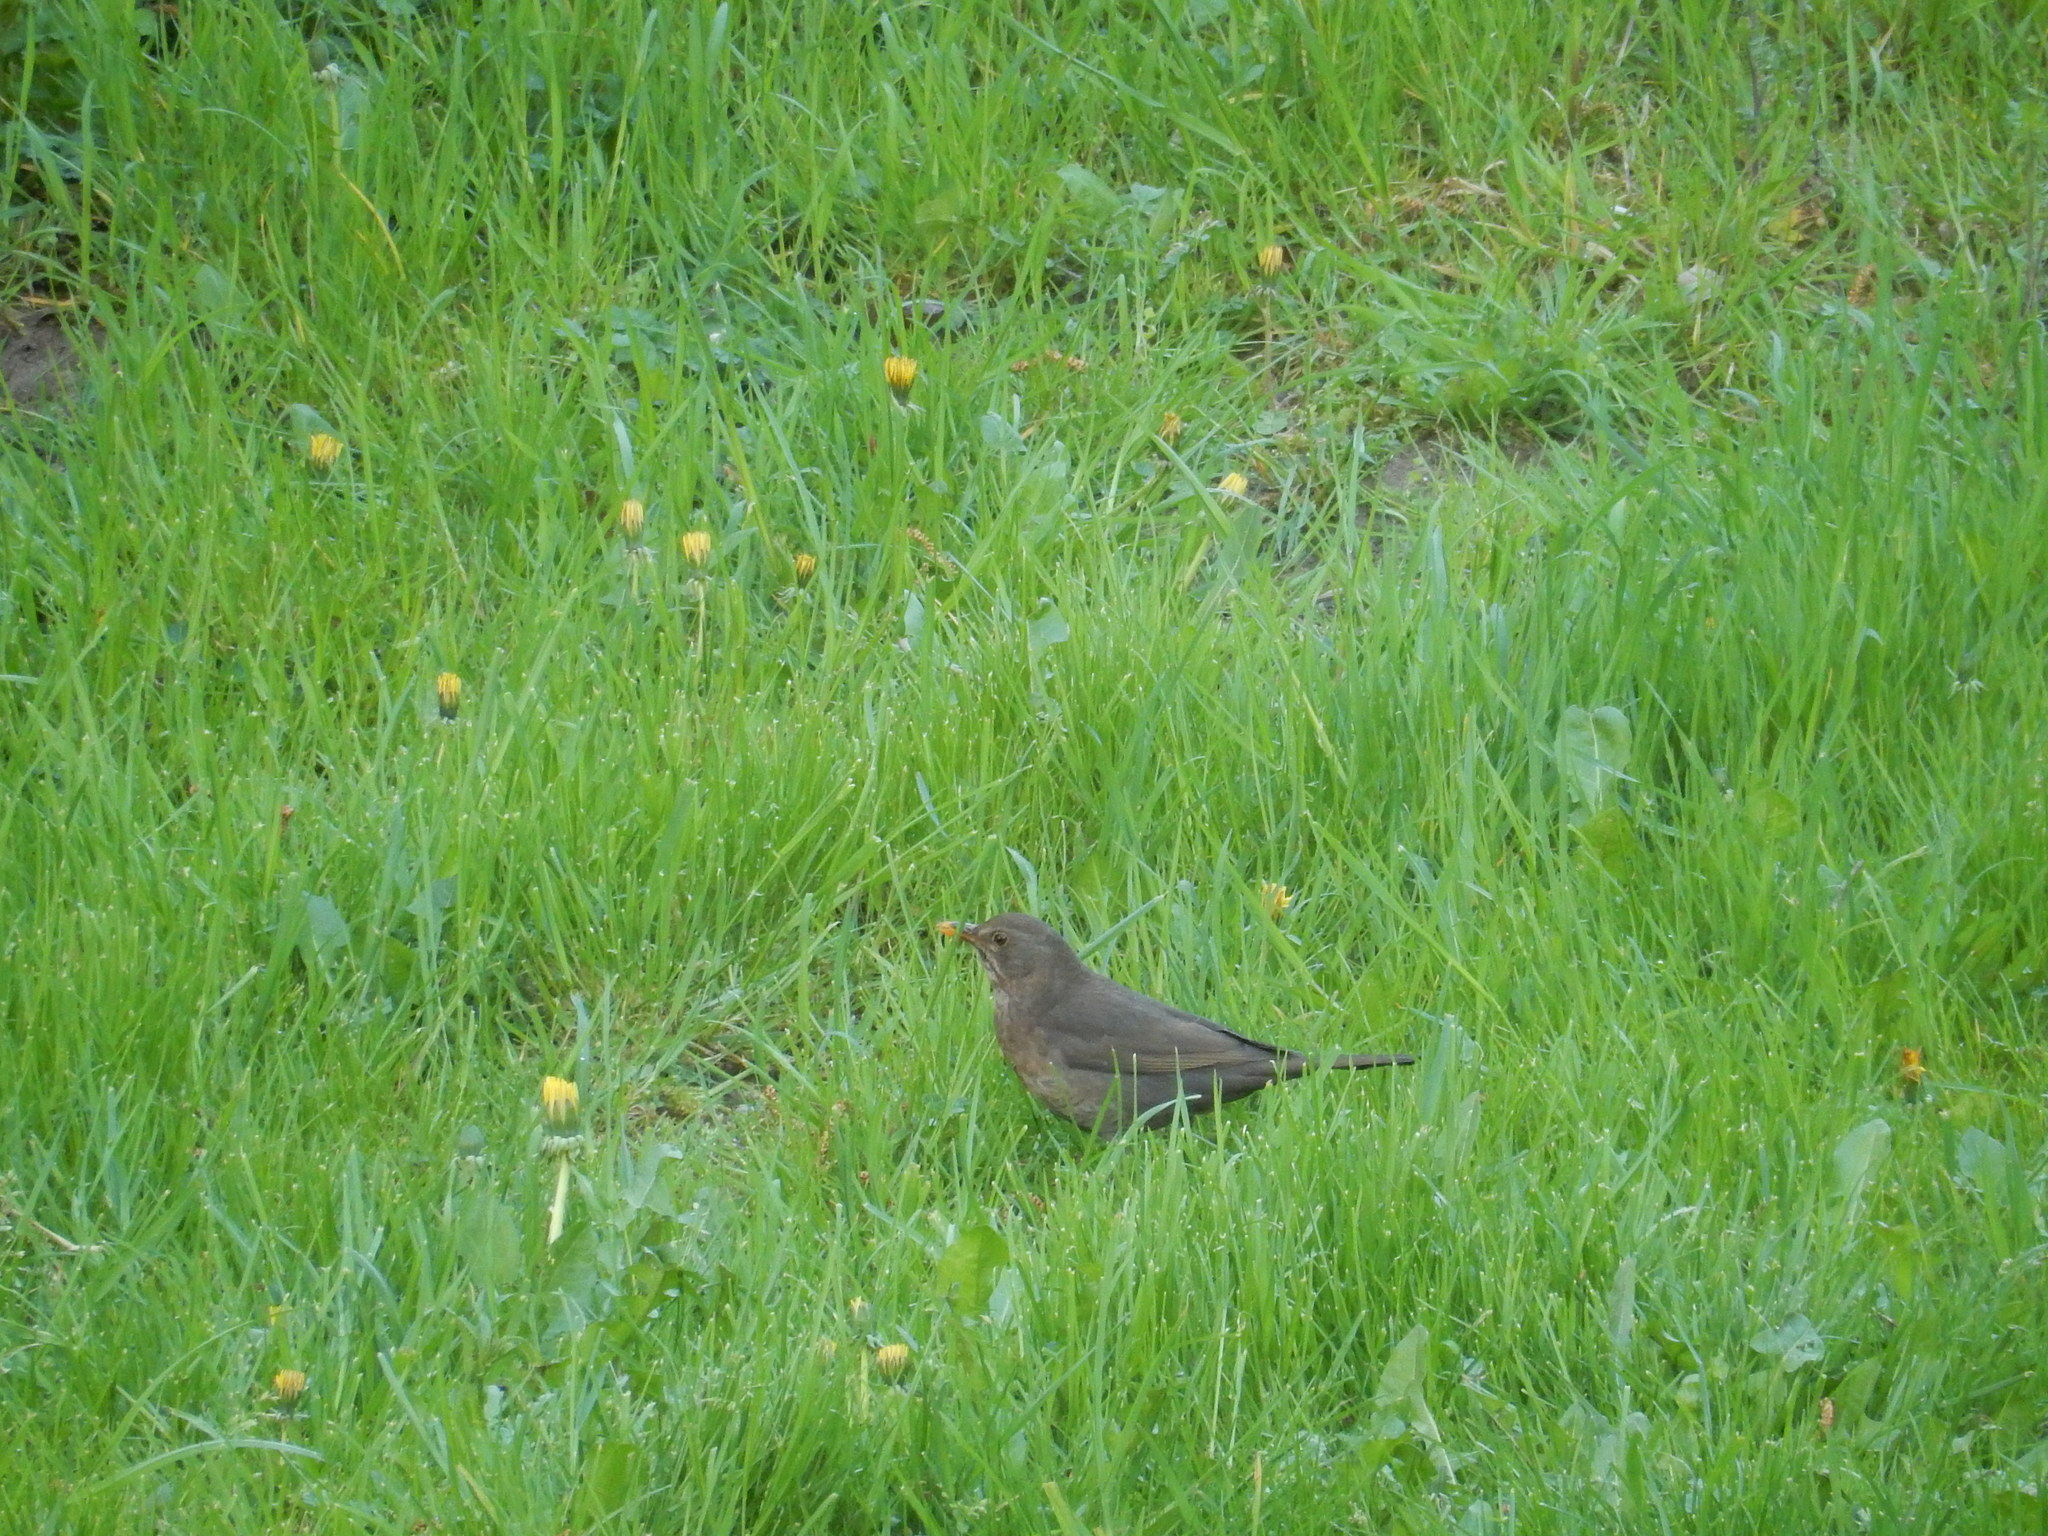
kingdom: Animalia
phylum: Chordata
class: Aves
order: Passeriformes
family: Turdidae
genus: Turdus
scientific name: Turdus merula
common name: Common blackbird
